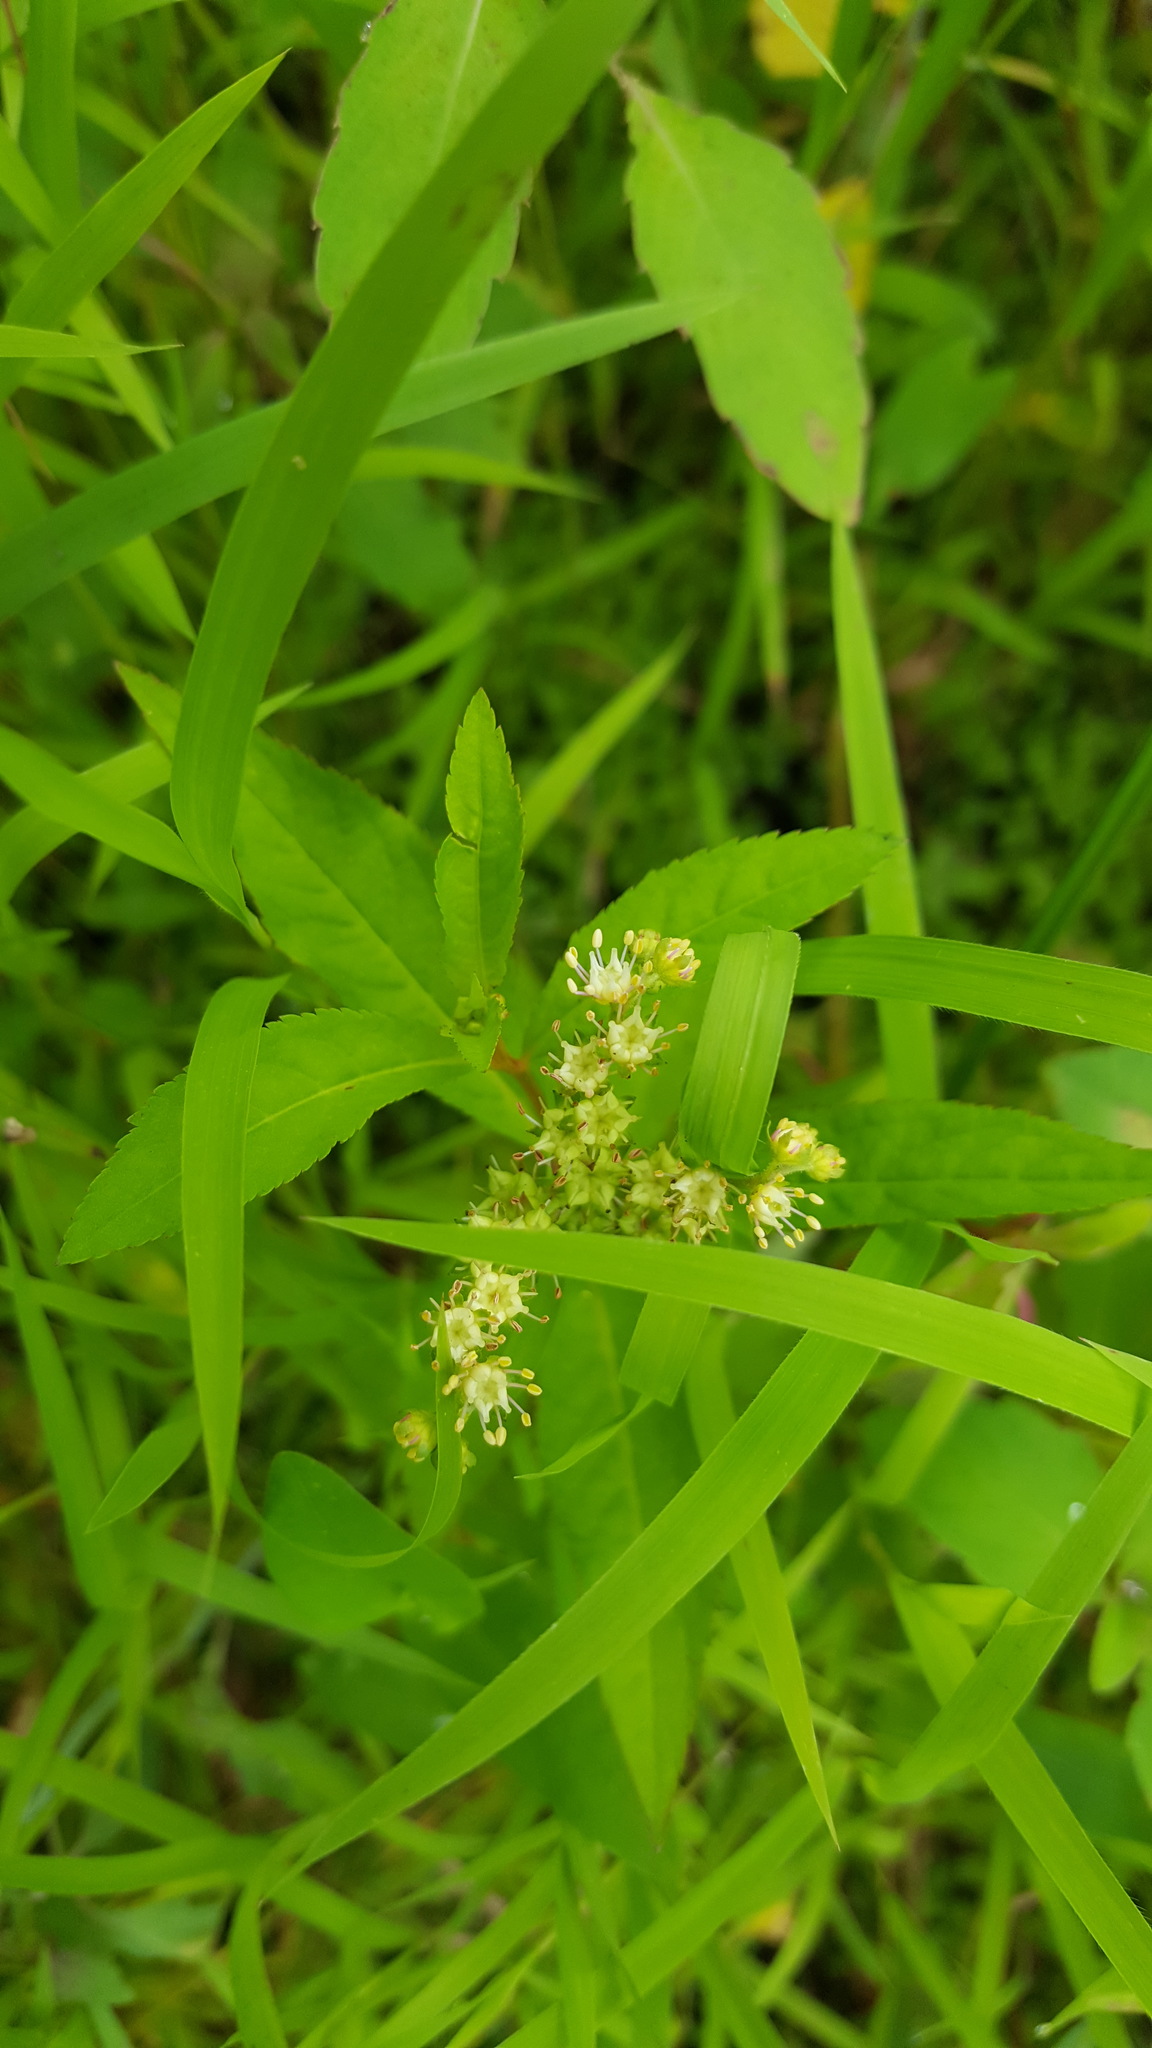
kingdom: Plantae
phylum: Tracheophyta
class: Magnoliopsida
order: Saxifragales
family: Penthoraceae
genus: Penthorum
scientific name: Penthorum sedoides
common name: Ditch stonecrop
